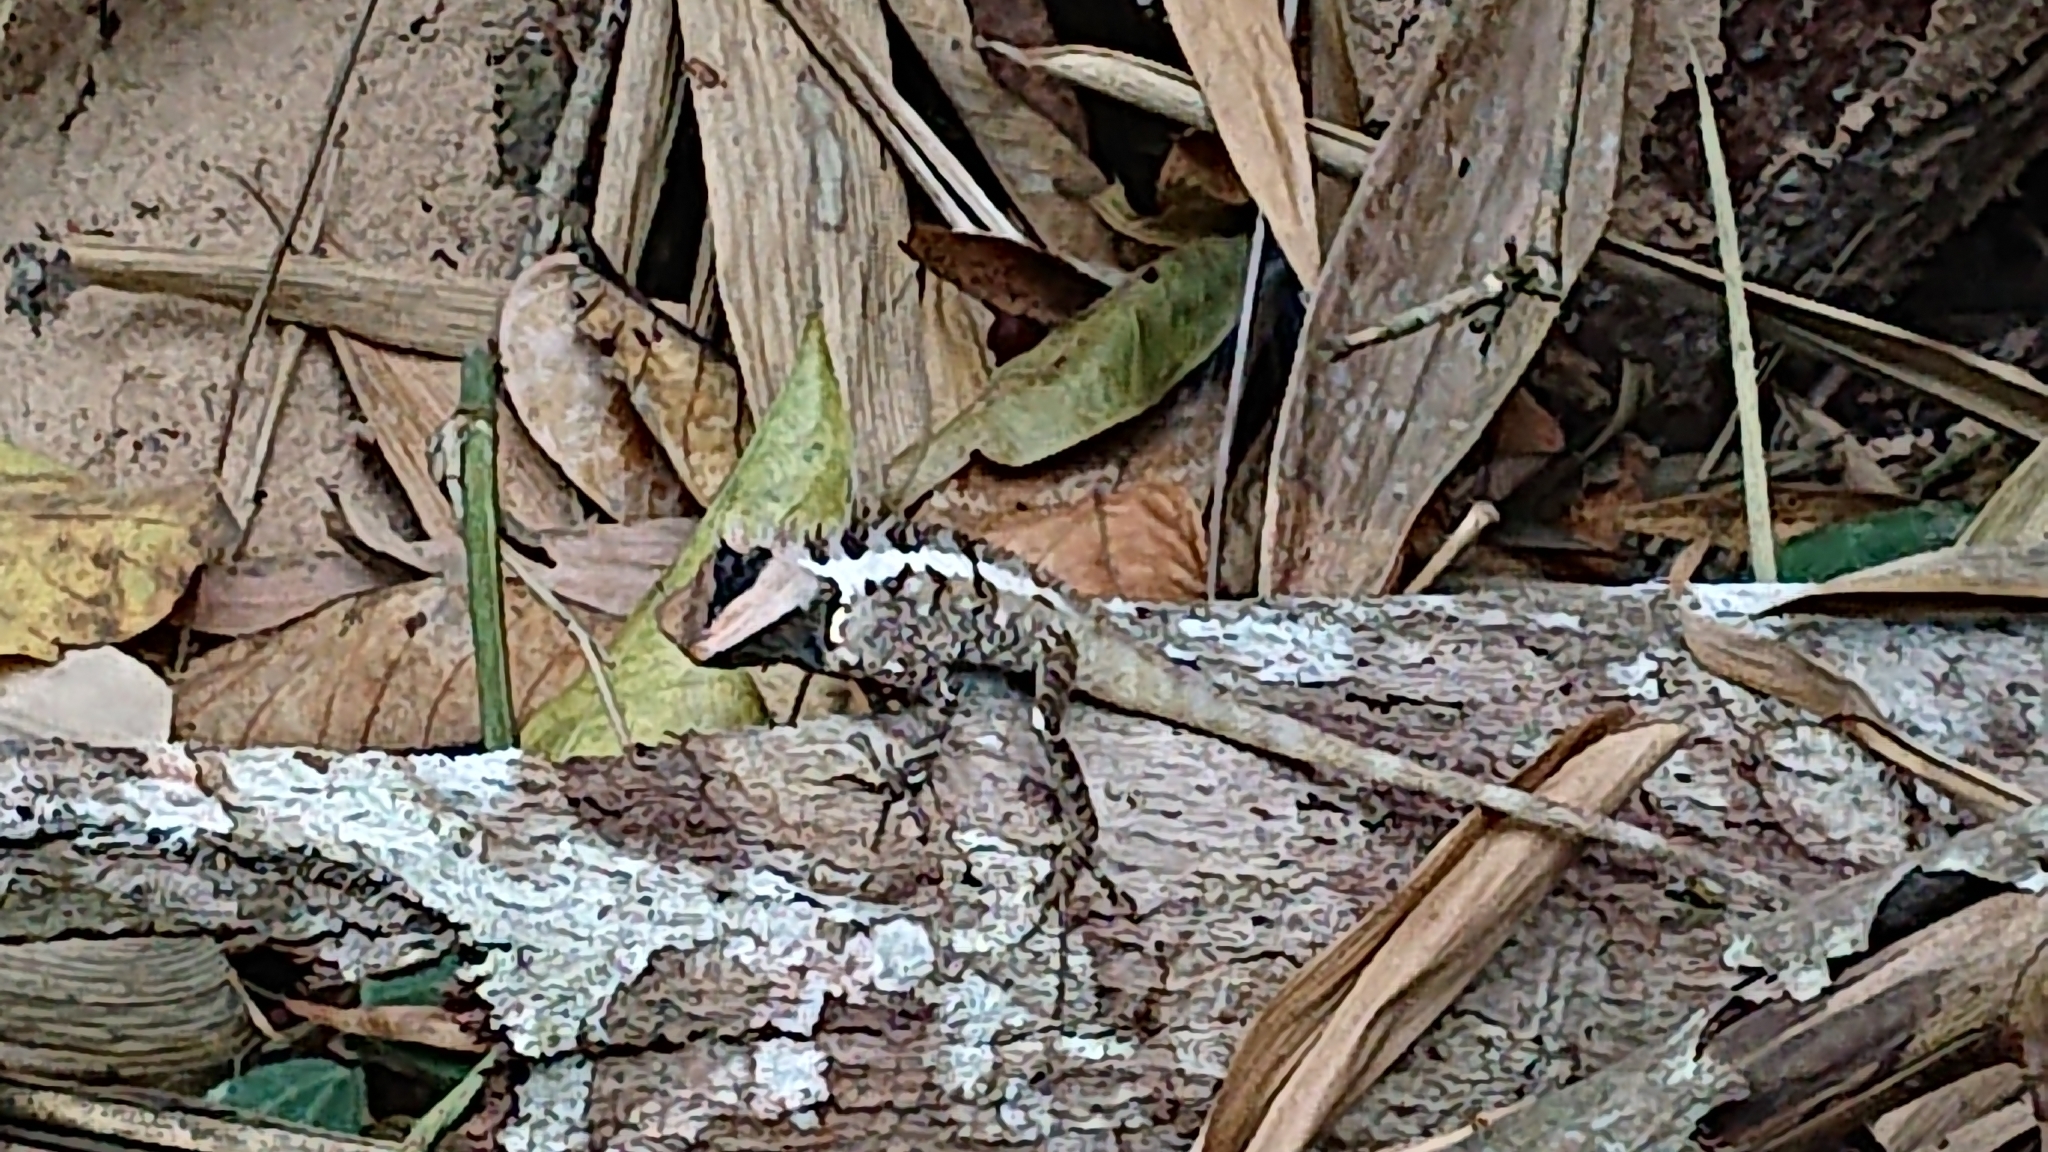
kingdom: Animalia
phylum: Chordata
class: Squamata
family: Agamidae
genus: Calotes
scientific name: Calotes emma
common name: Thailand bloodsucker
